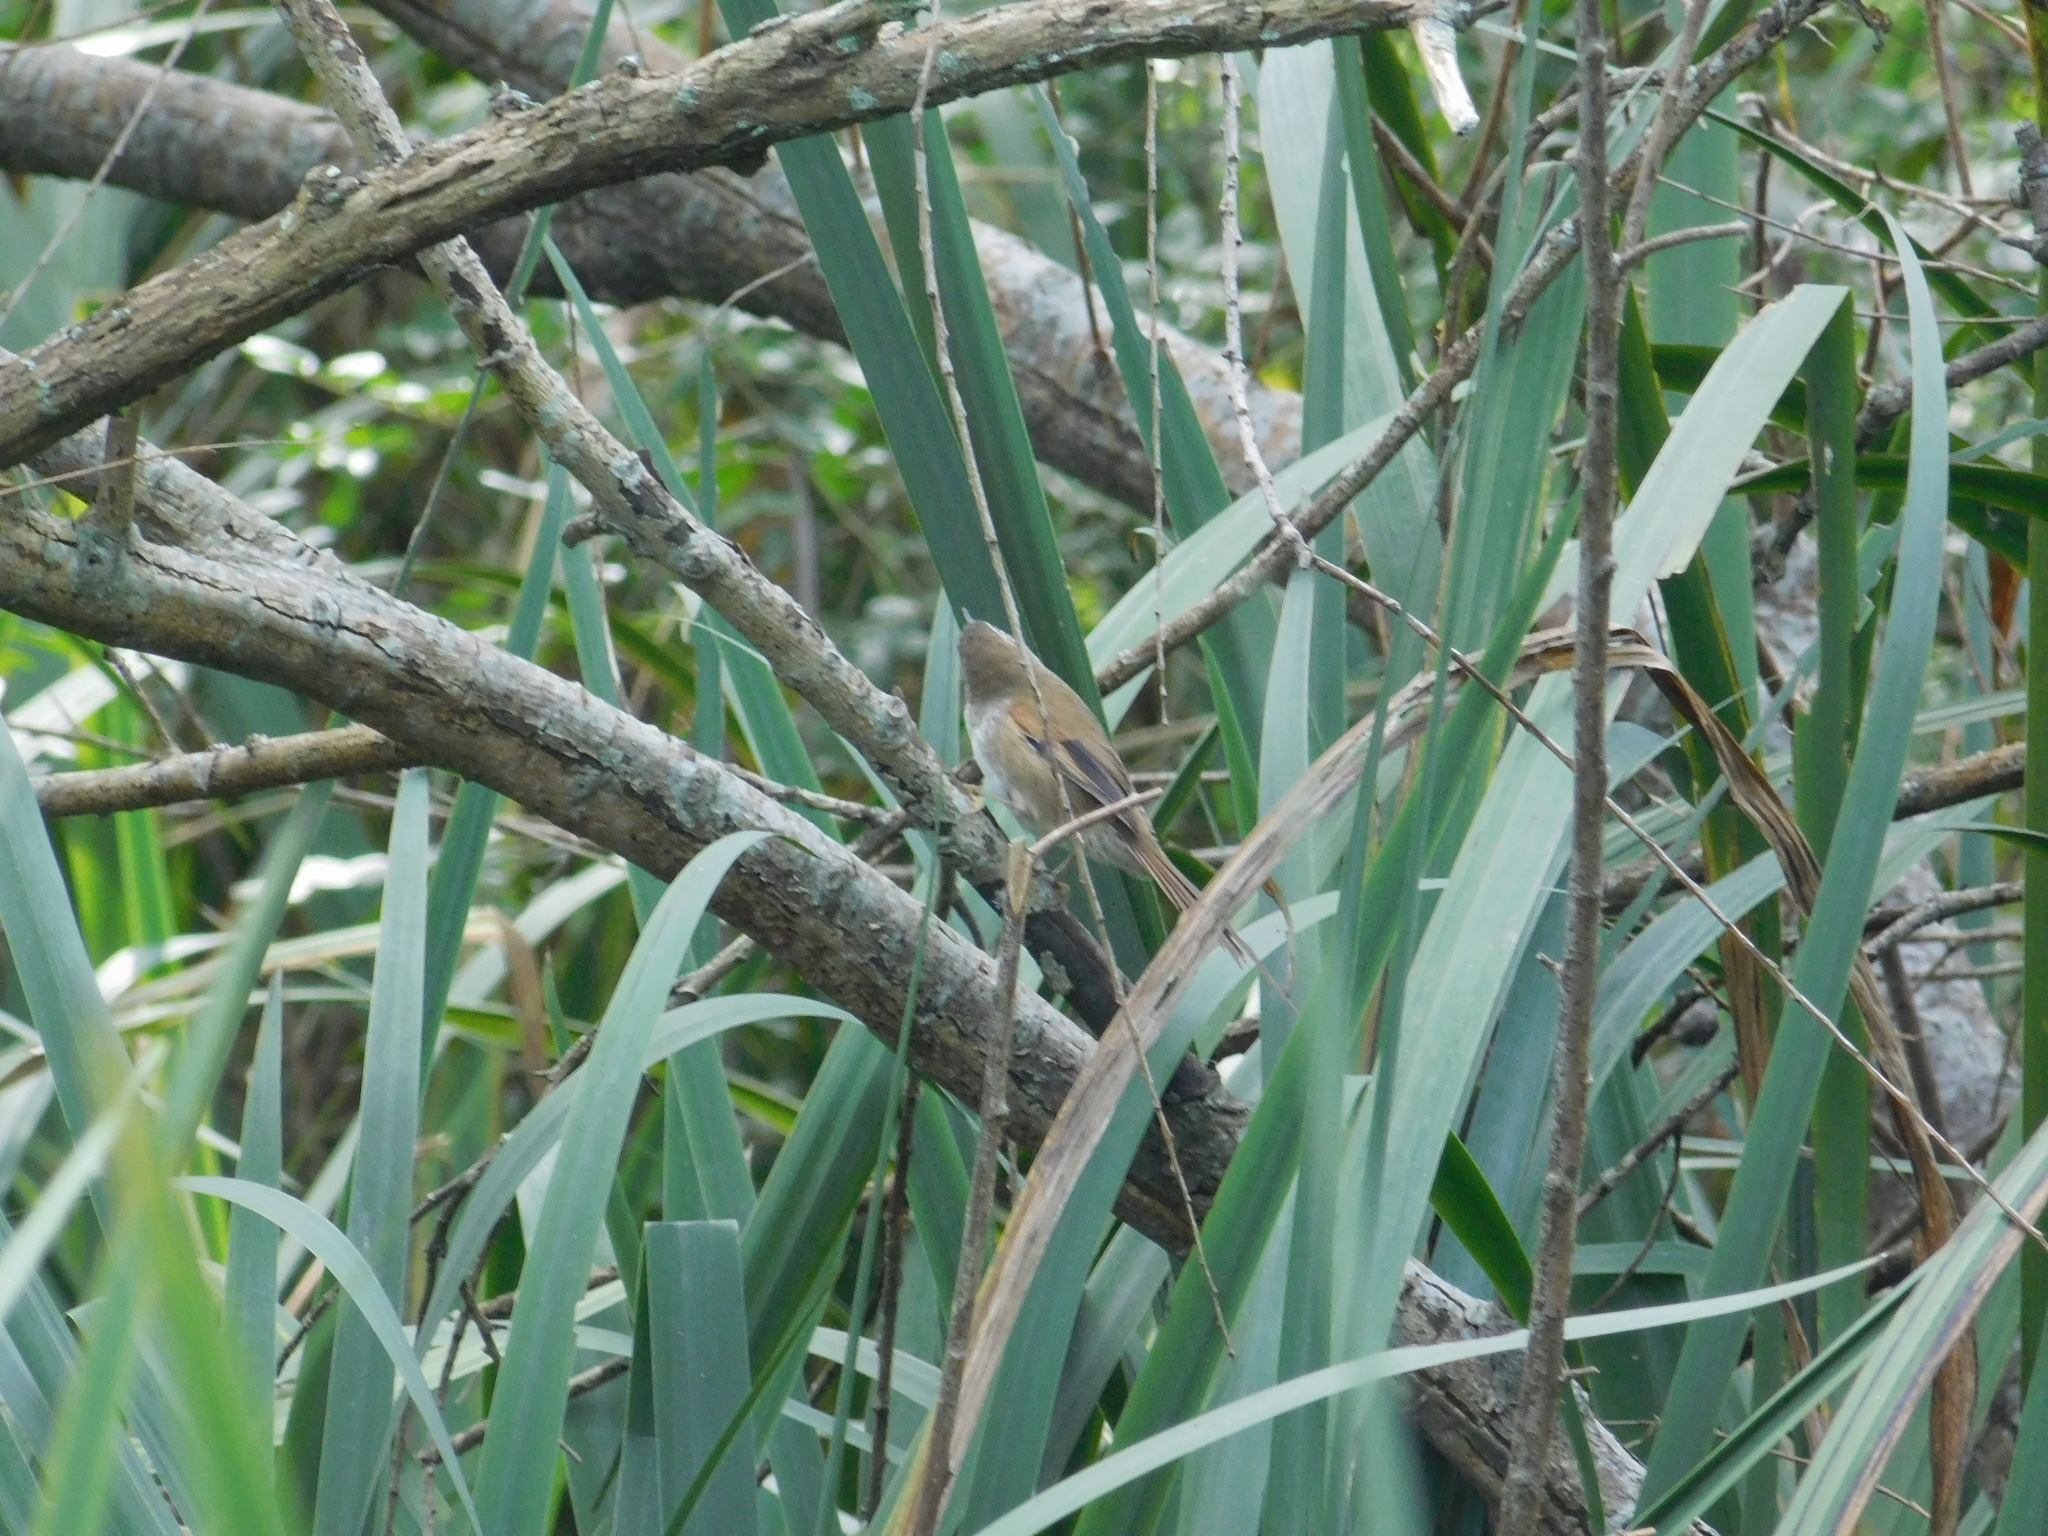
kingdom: Animalia
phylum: Chordata
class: Aves
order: Passeriformes
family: Furnariidae
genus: Cranioleuca
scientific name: Cranioleuca sulphurifera
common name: Sulphur-bearded spinetail
